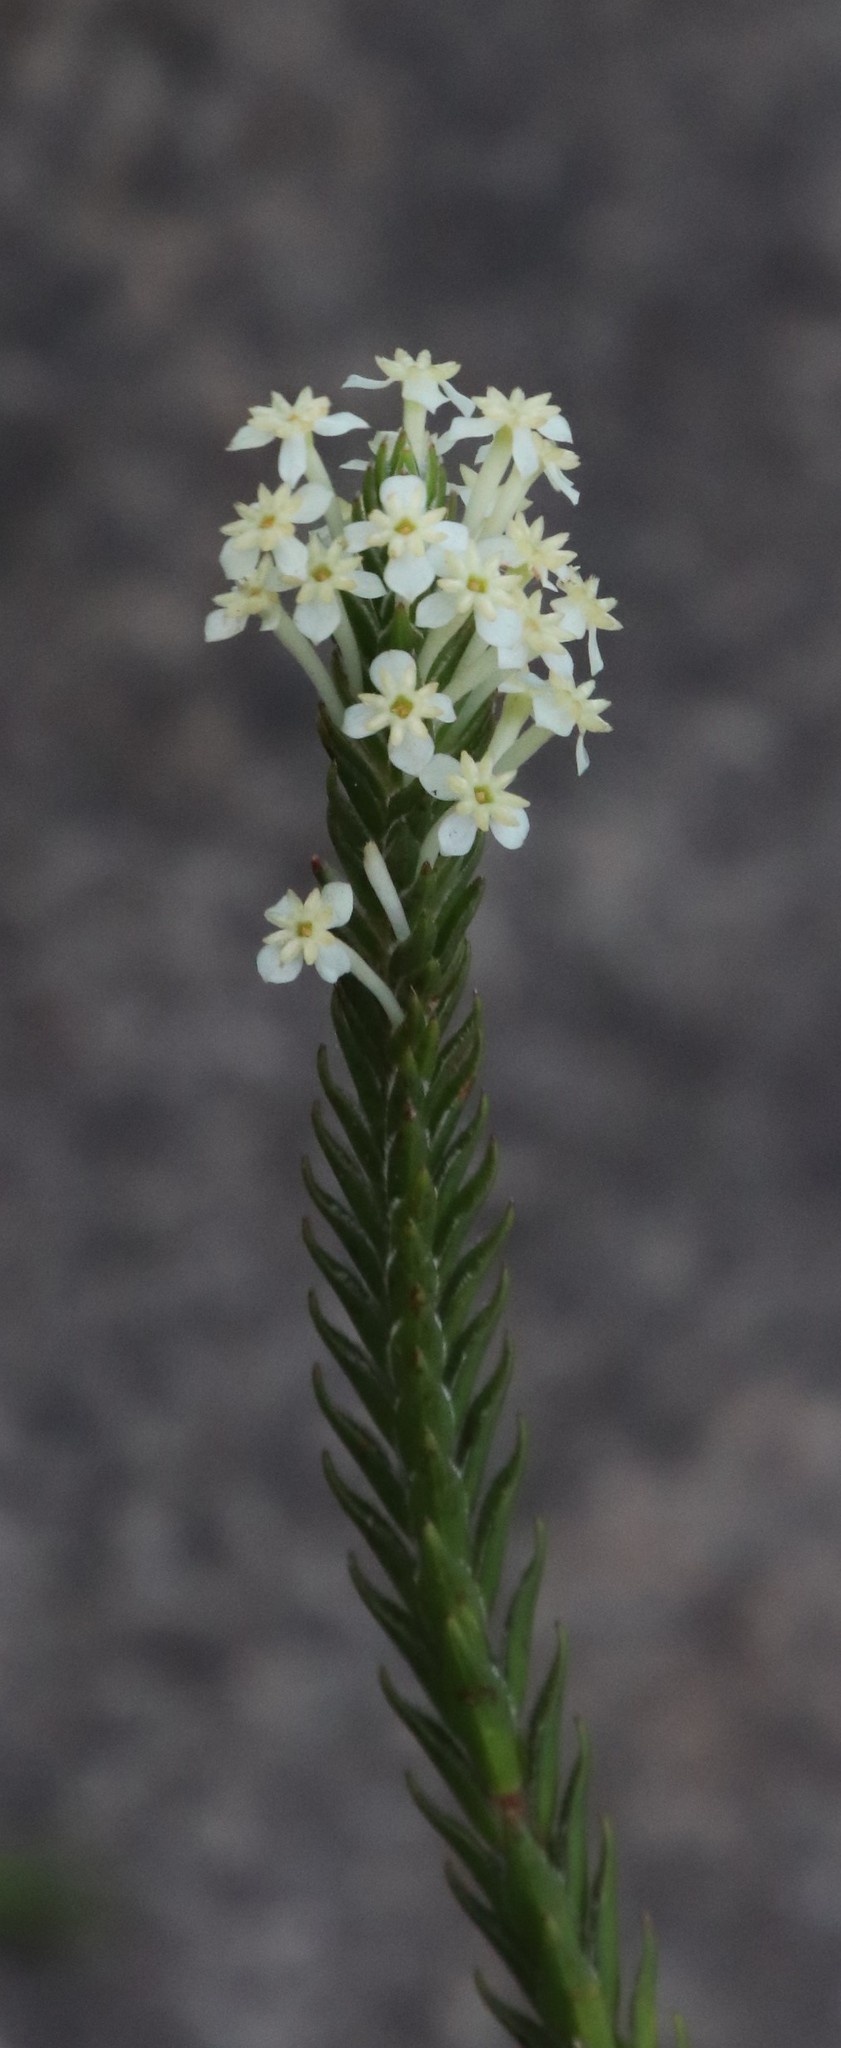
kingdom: Plantae
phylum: Tracheophyta
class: Magnoliopsida
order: Malvales
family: Thymelaeaceae
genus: Struthiola
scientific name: Struthiola ciliata
